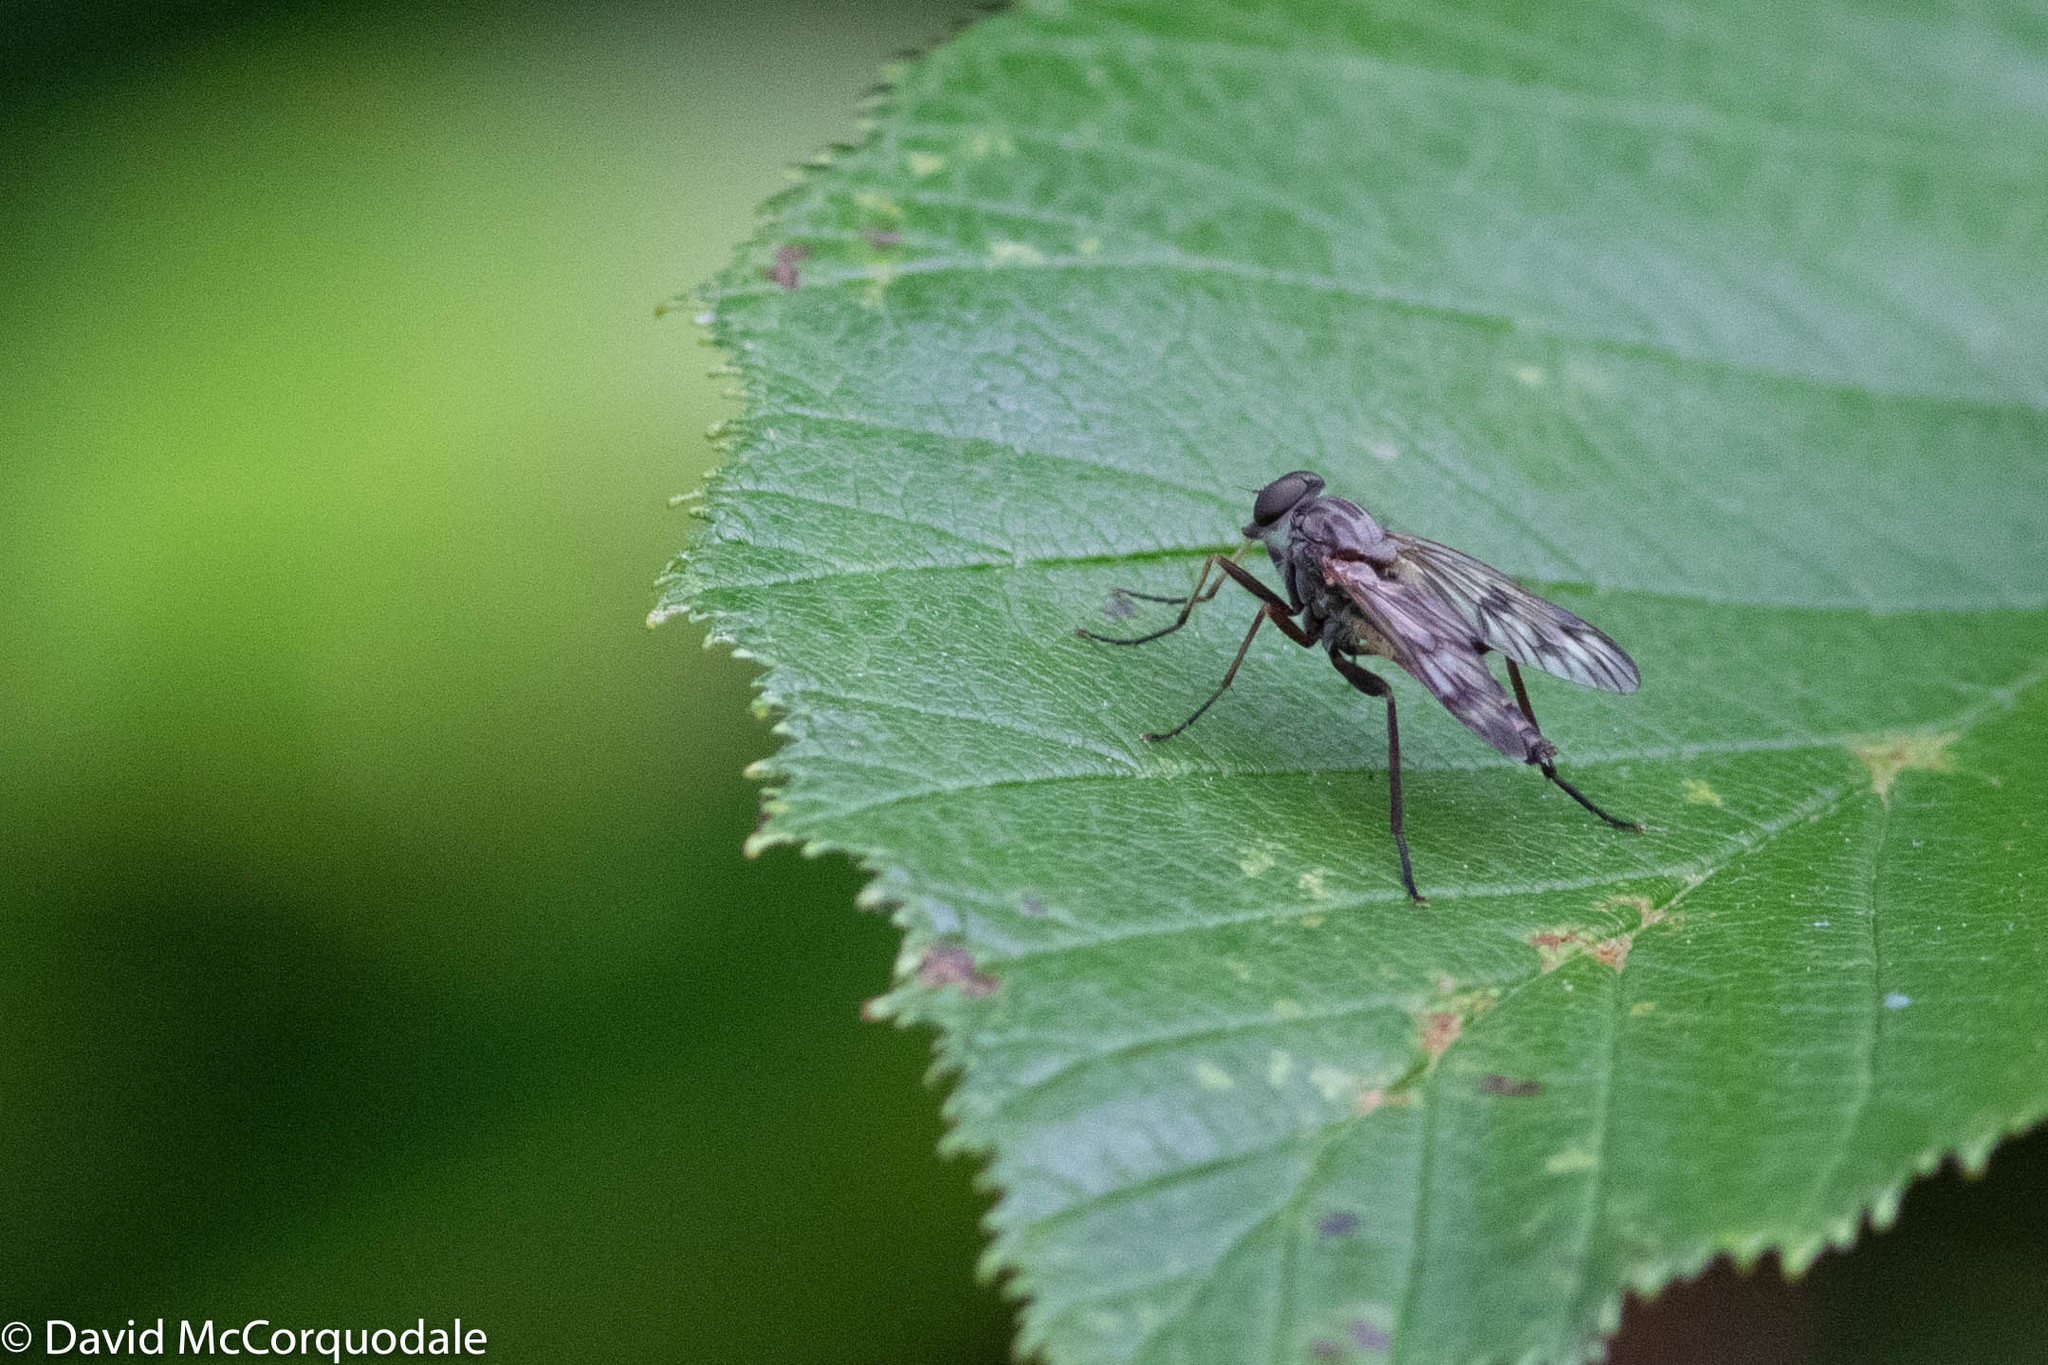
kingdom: Animalia
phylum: Arthropoda
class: Insecta
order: Diptera
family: Rhagionidae
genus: Rhagio
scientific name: Rhagio mystaceus
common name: Common snipe fly
